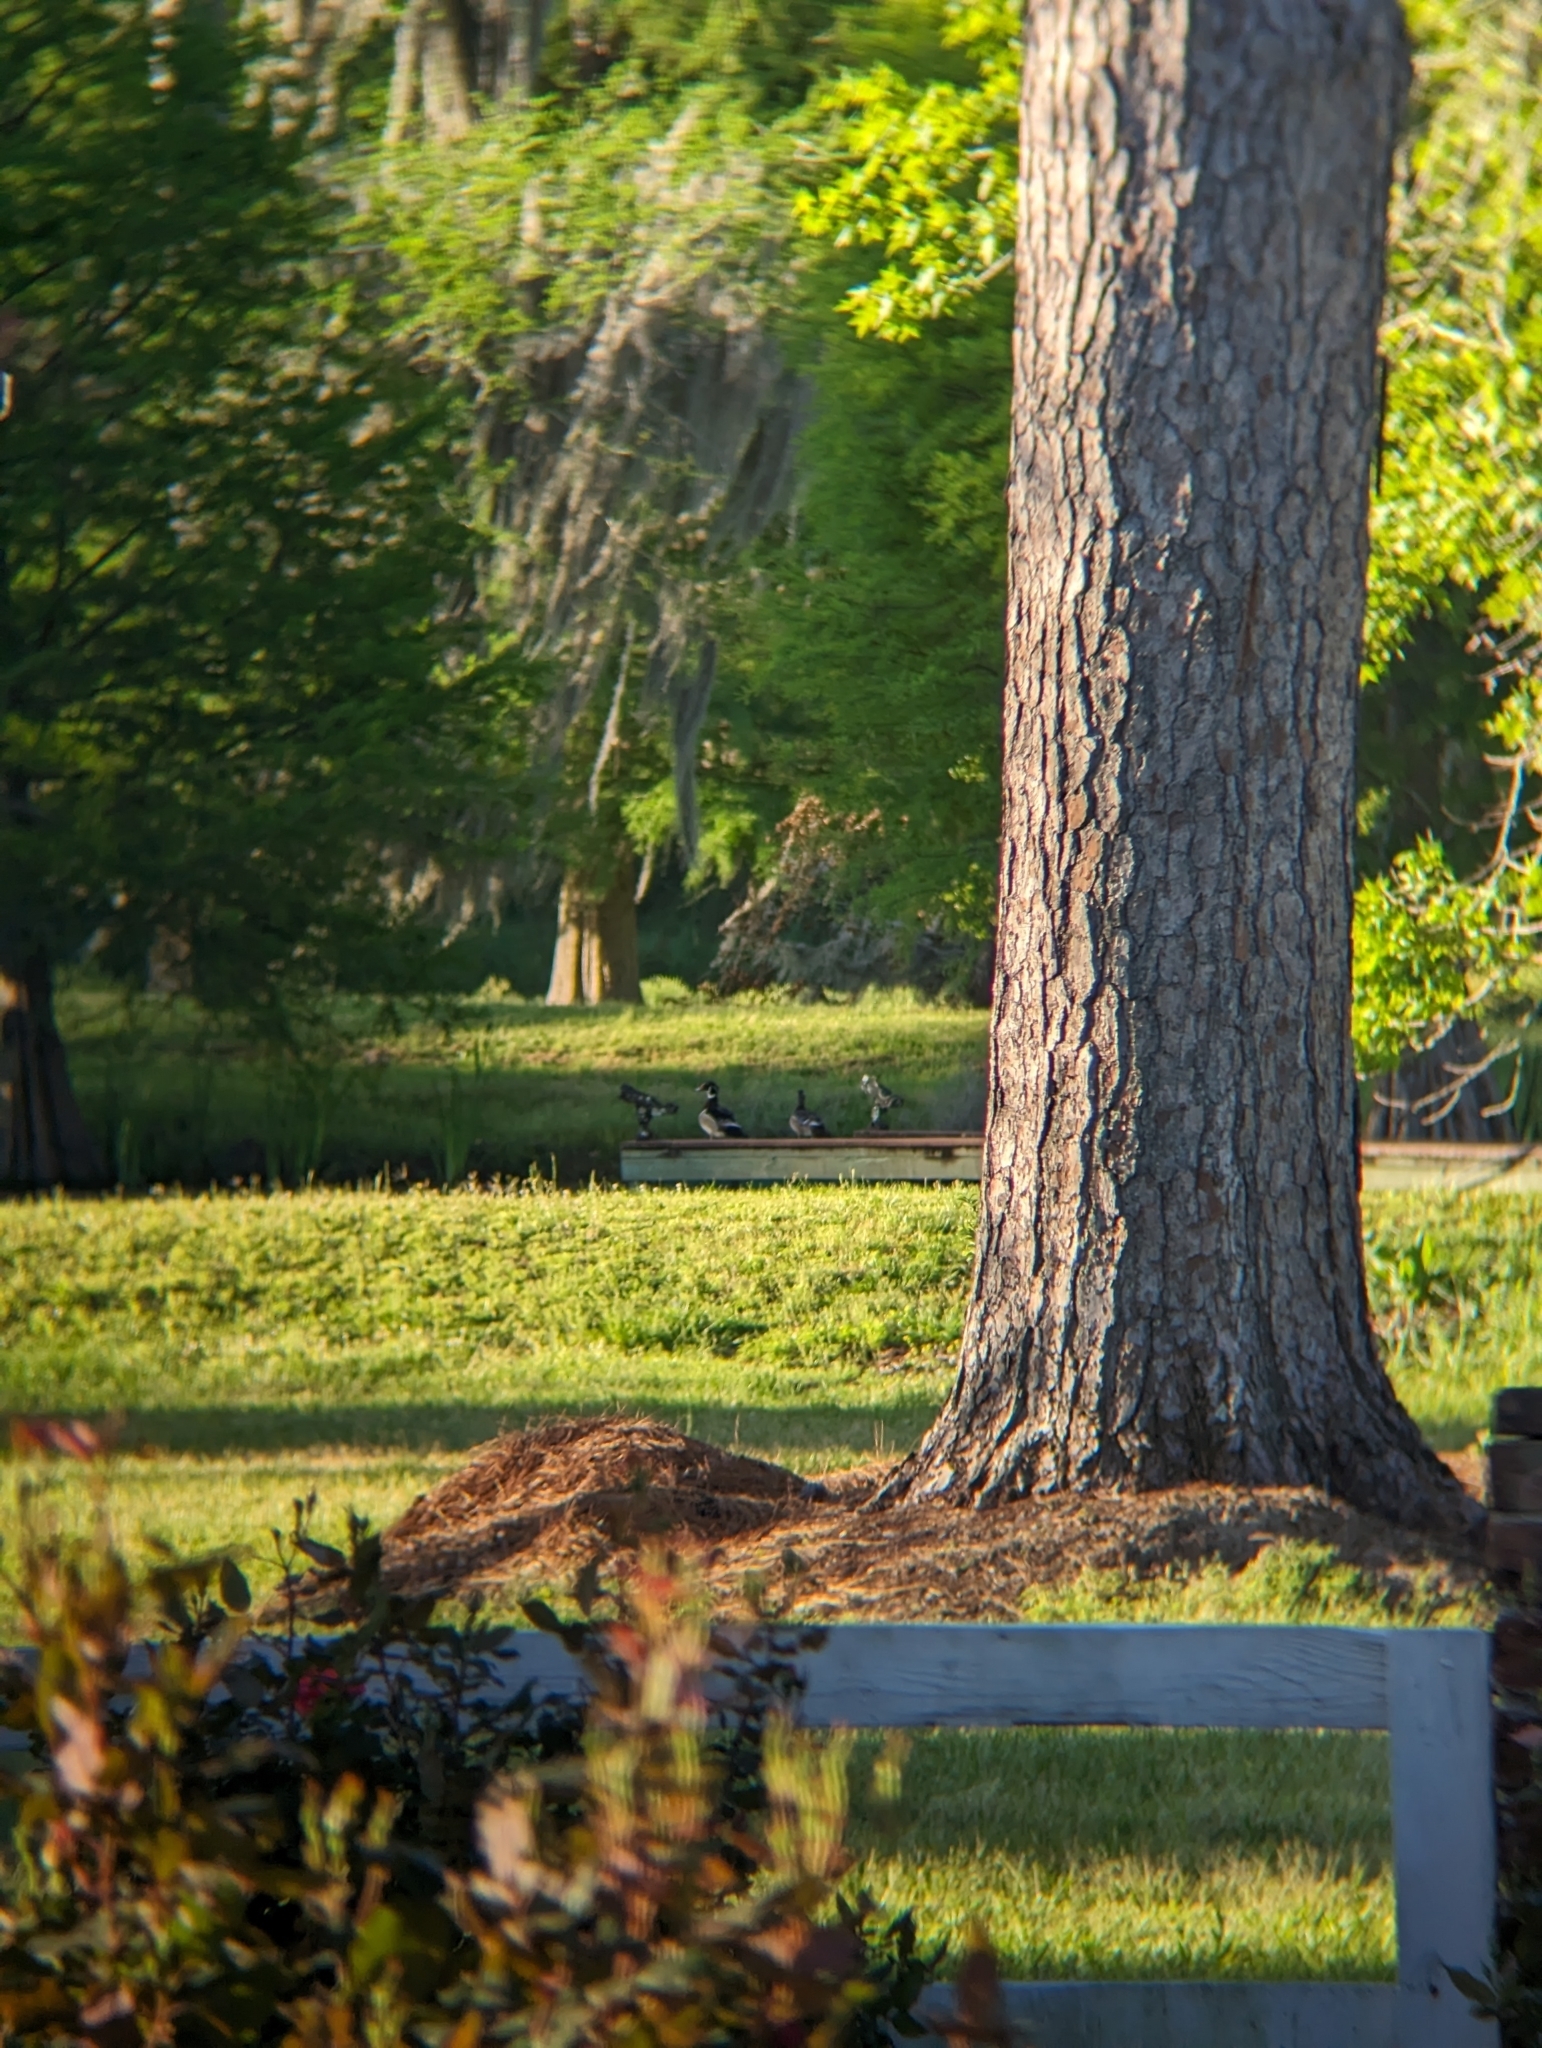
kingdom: Animalia
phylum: Chordata
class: Aves
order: Anseriformes
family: Anatidae
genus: Aix
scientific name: Aix sponsa
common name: Wood duck
